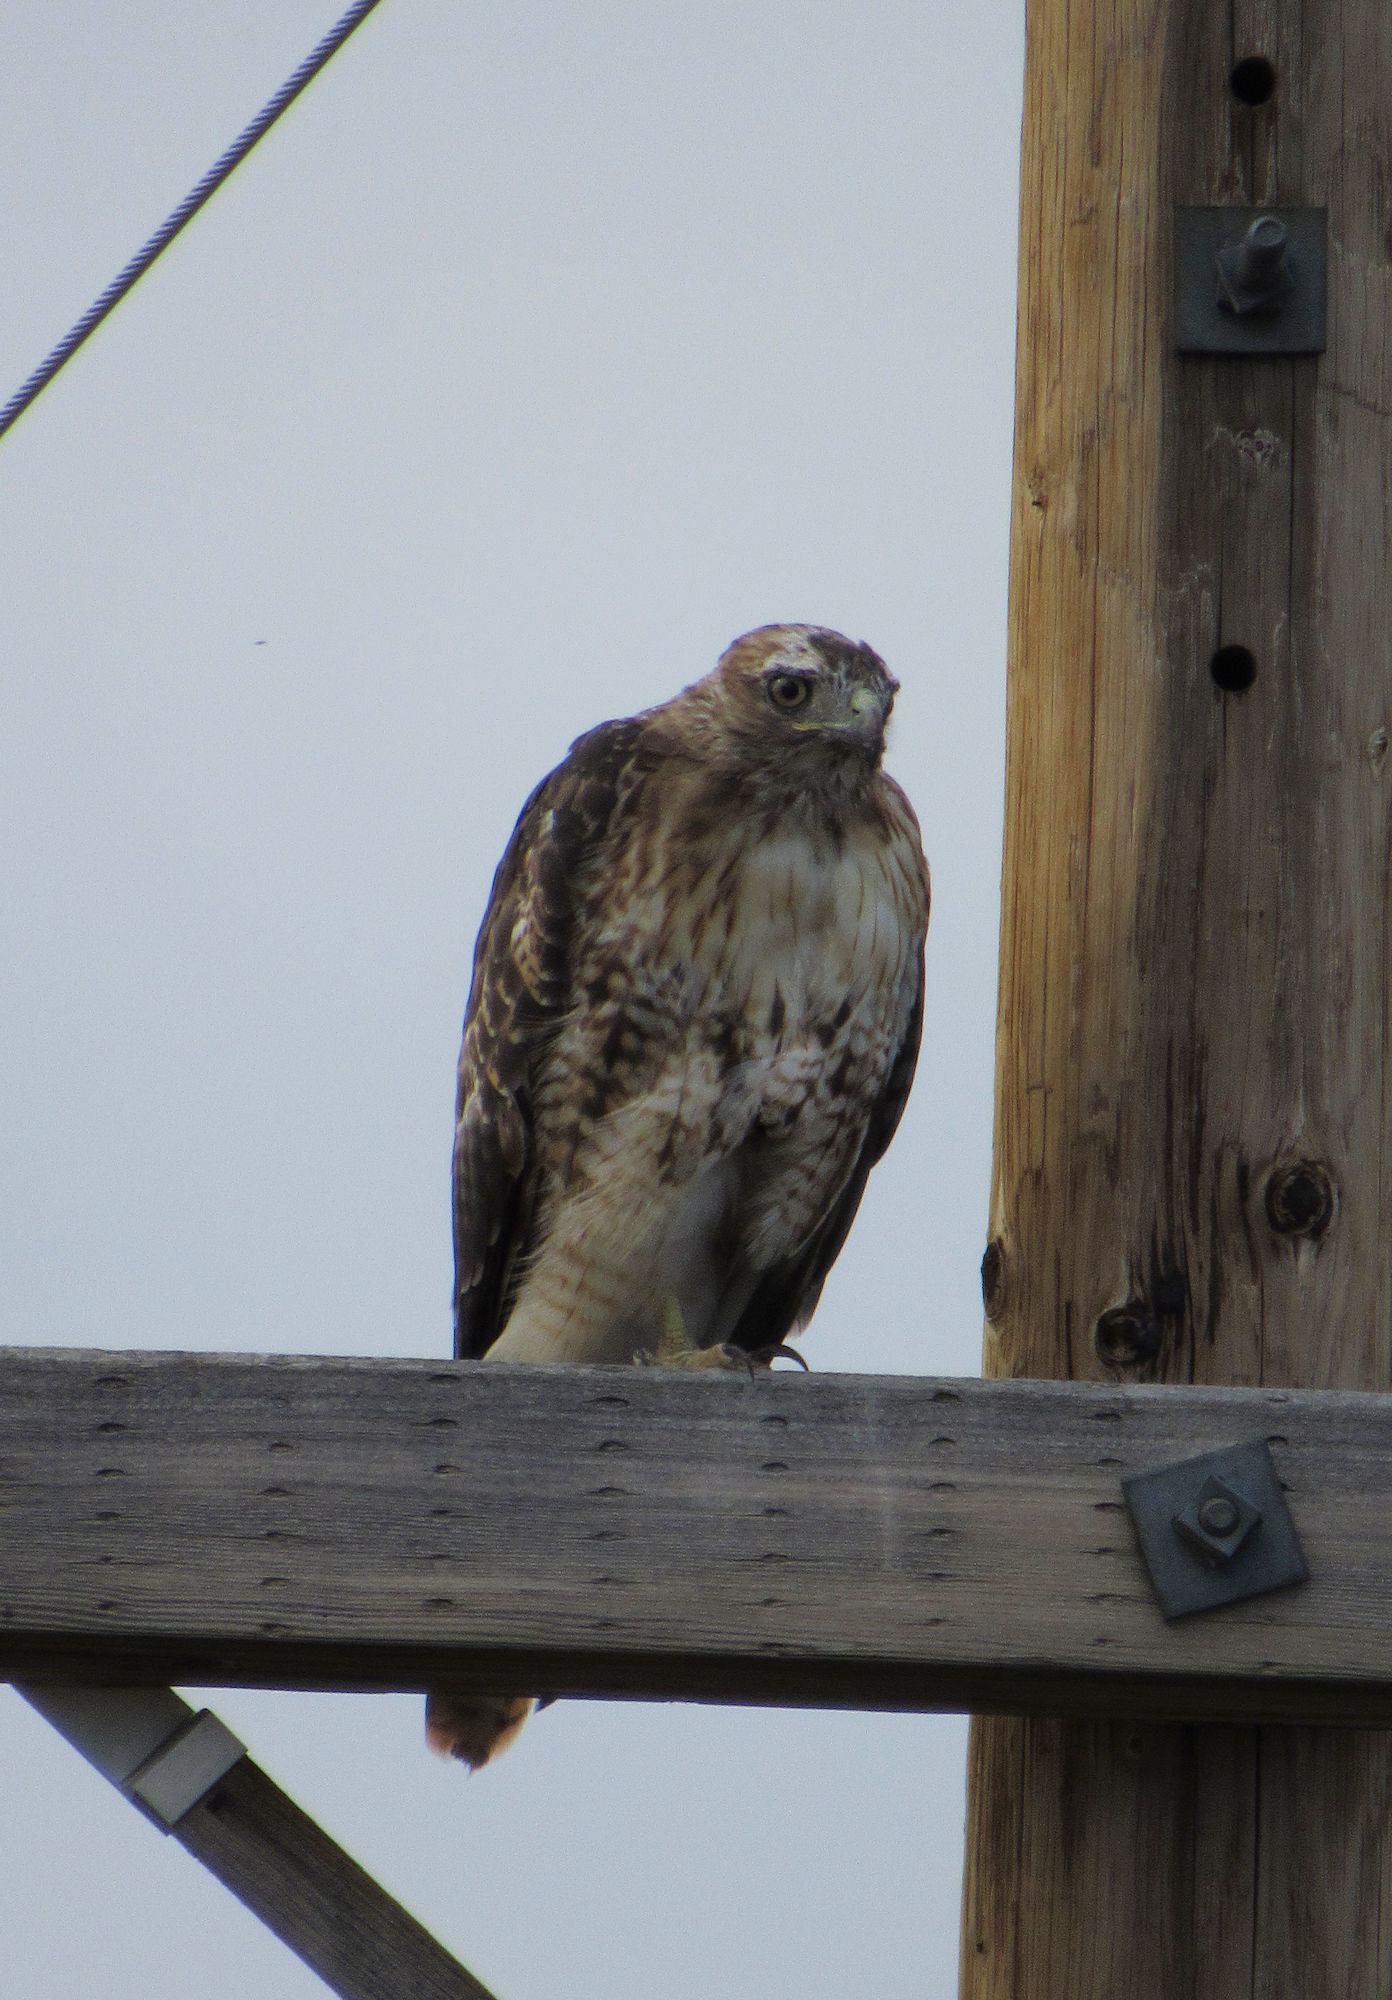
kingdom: Animalia
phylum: Chordata
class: Aves
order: Accipitriformes
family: Accipitridae
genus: Buteo
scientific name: Buteo jamaicensis
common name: Red-tailed hawk
